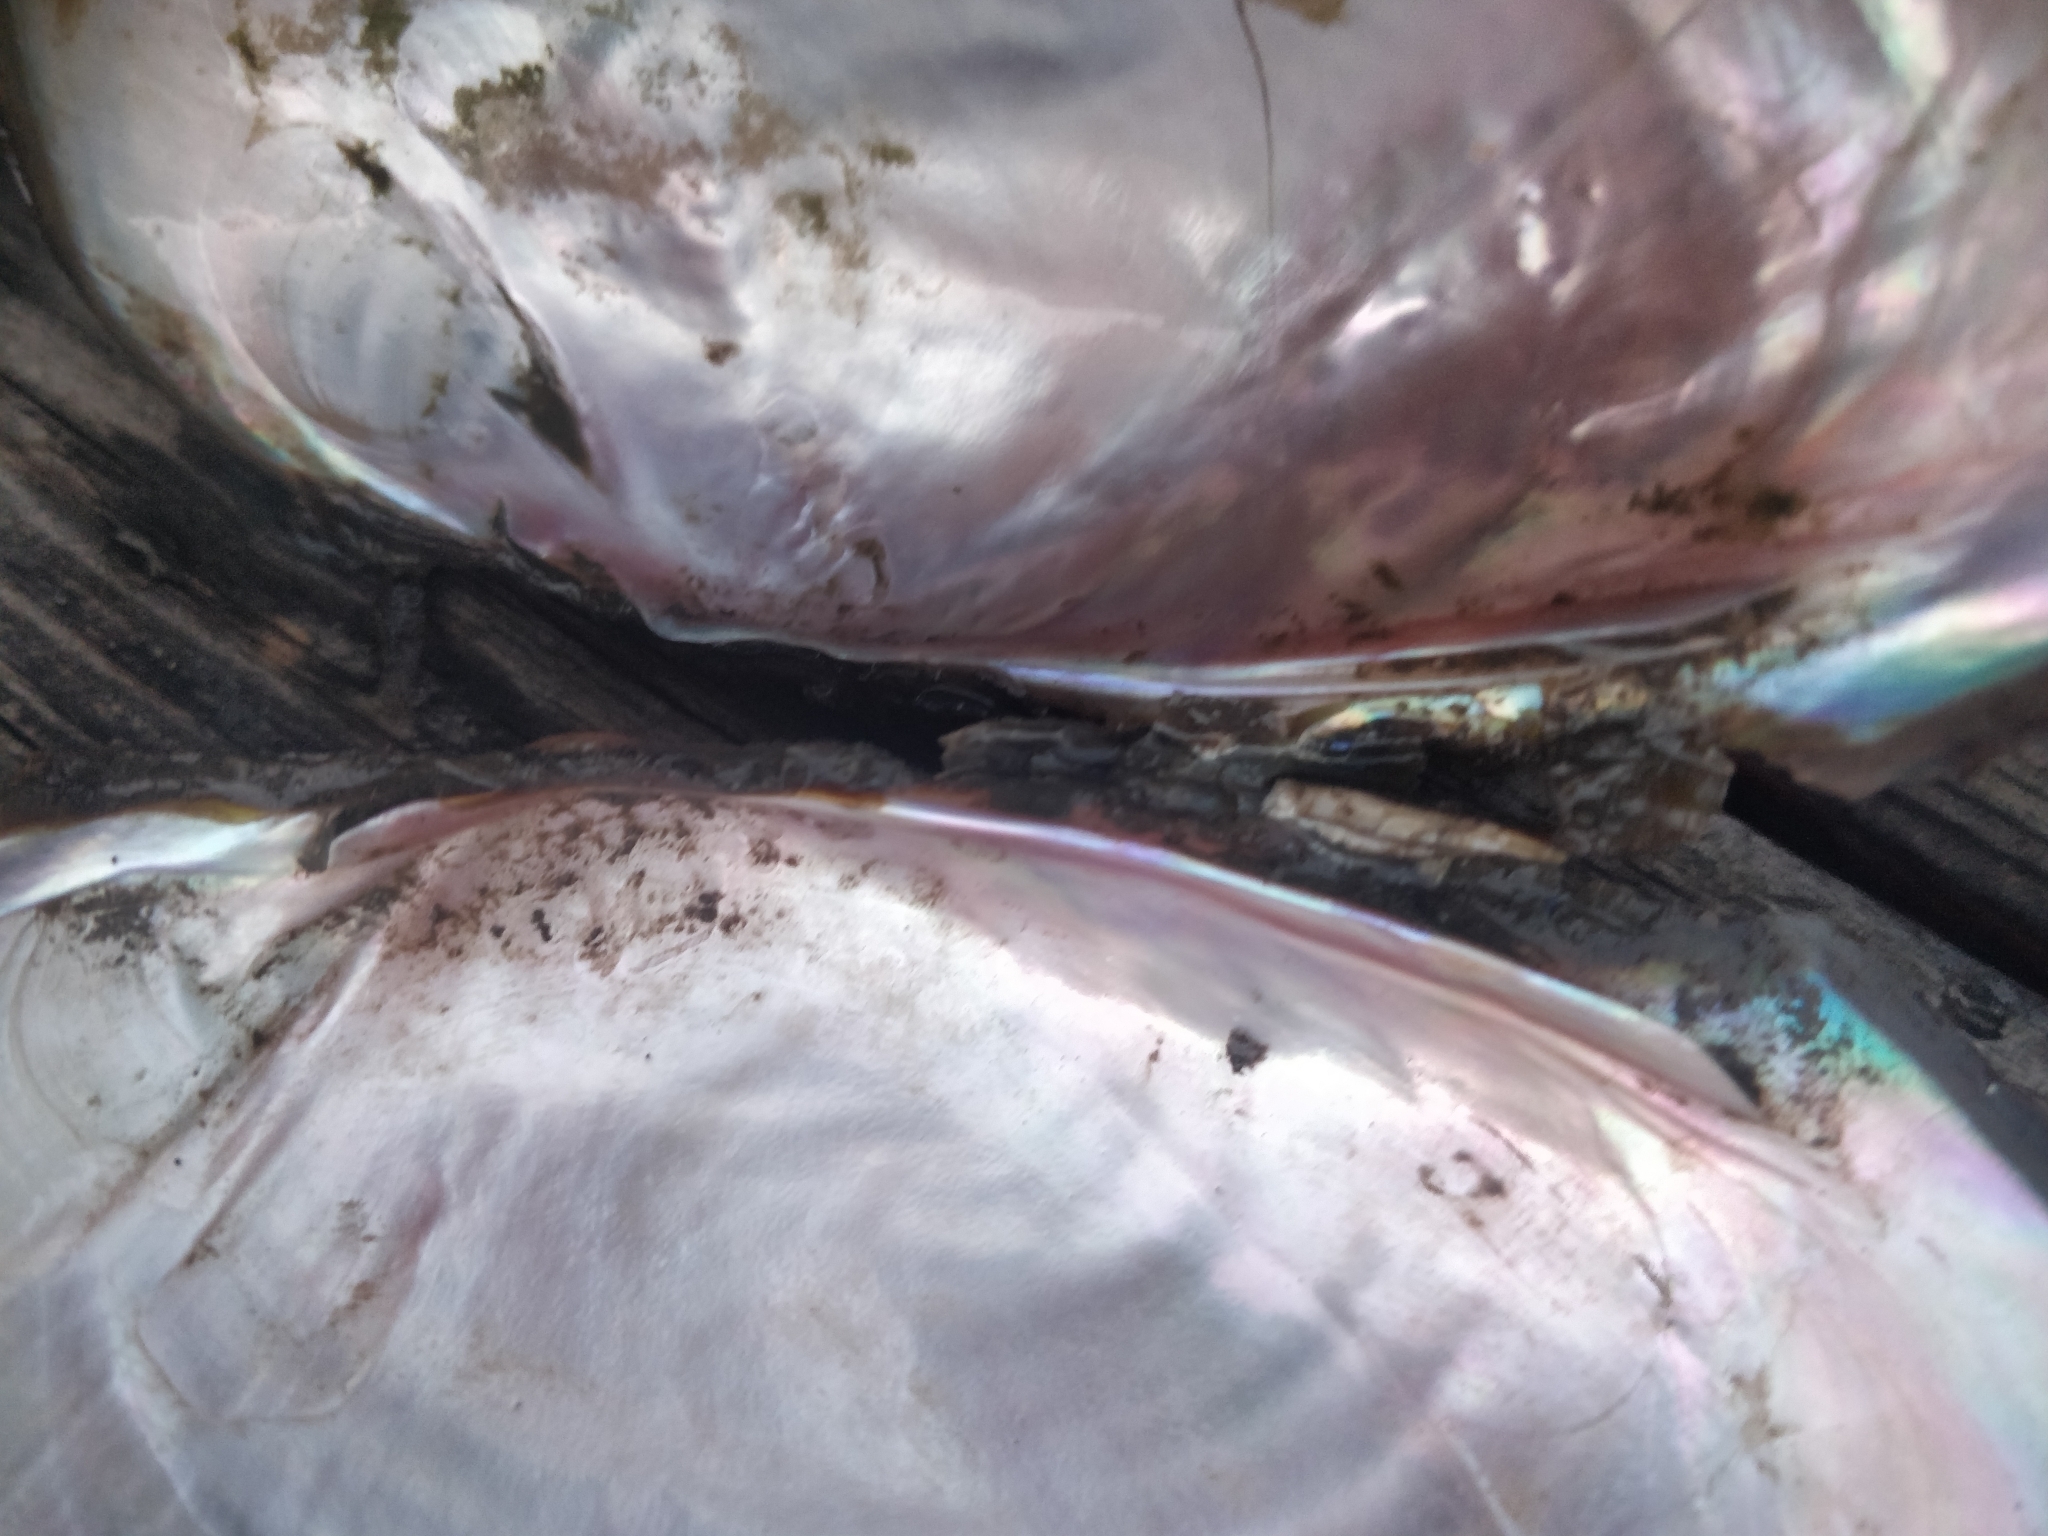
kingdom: Animalia
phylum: Mollusca
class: Bivalvia
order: Unionida
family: Unionidae
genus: Potamilus
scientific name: Potamilus fragilis
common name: Fragile papershell
